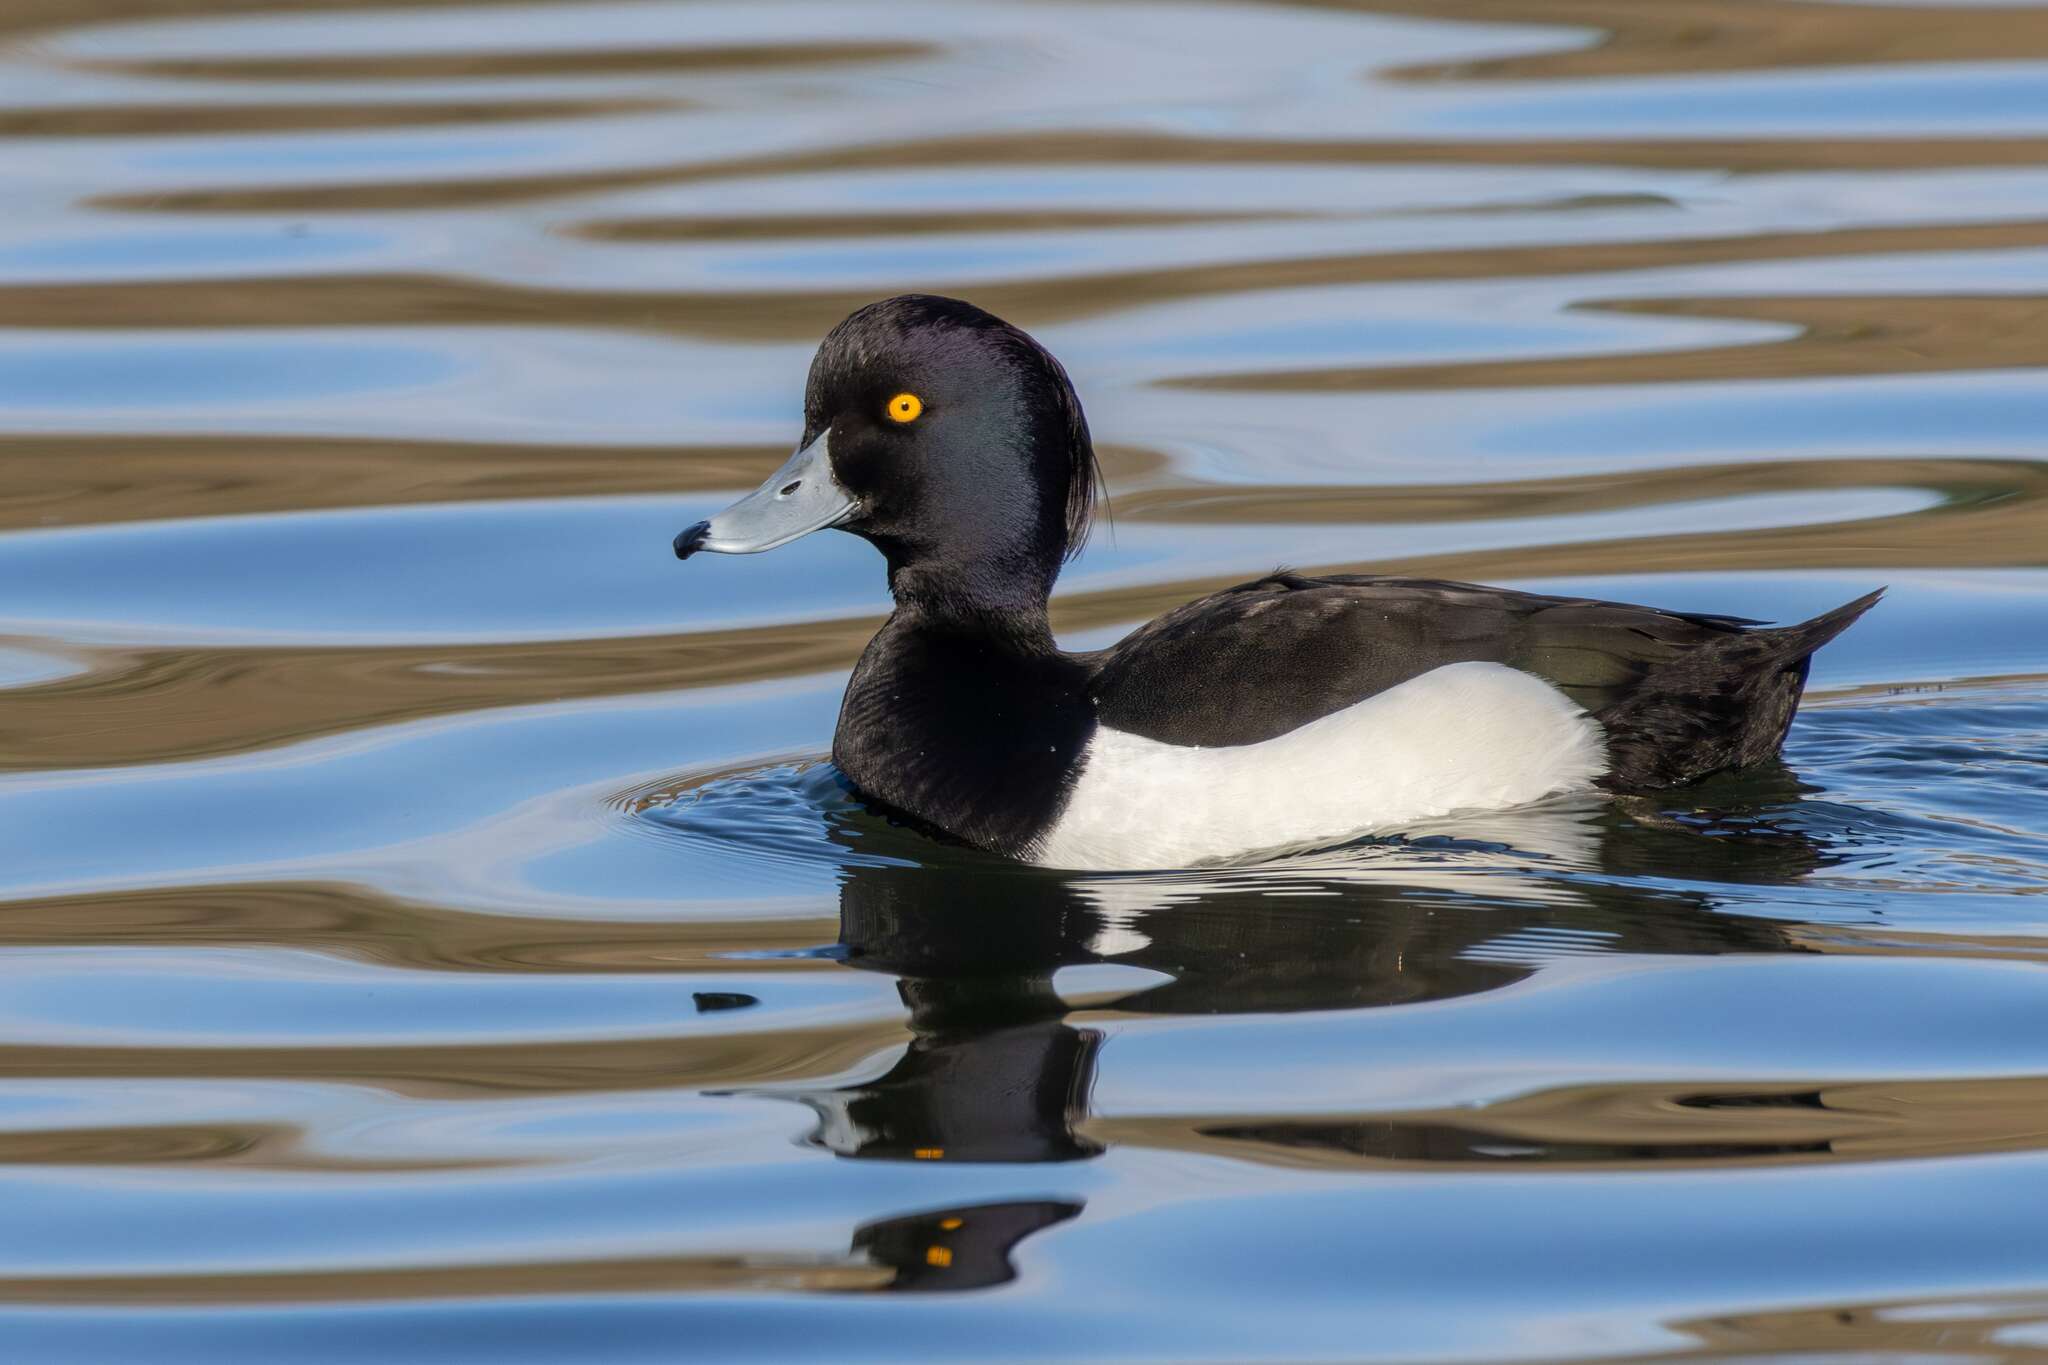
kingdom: Animalia
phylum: Chordata
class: Aves
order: Anseriformes
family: Anatidae
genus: Aythya
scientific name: Aythya fuligula
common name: Tufted duck
